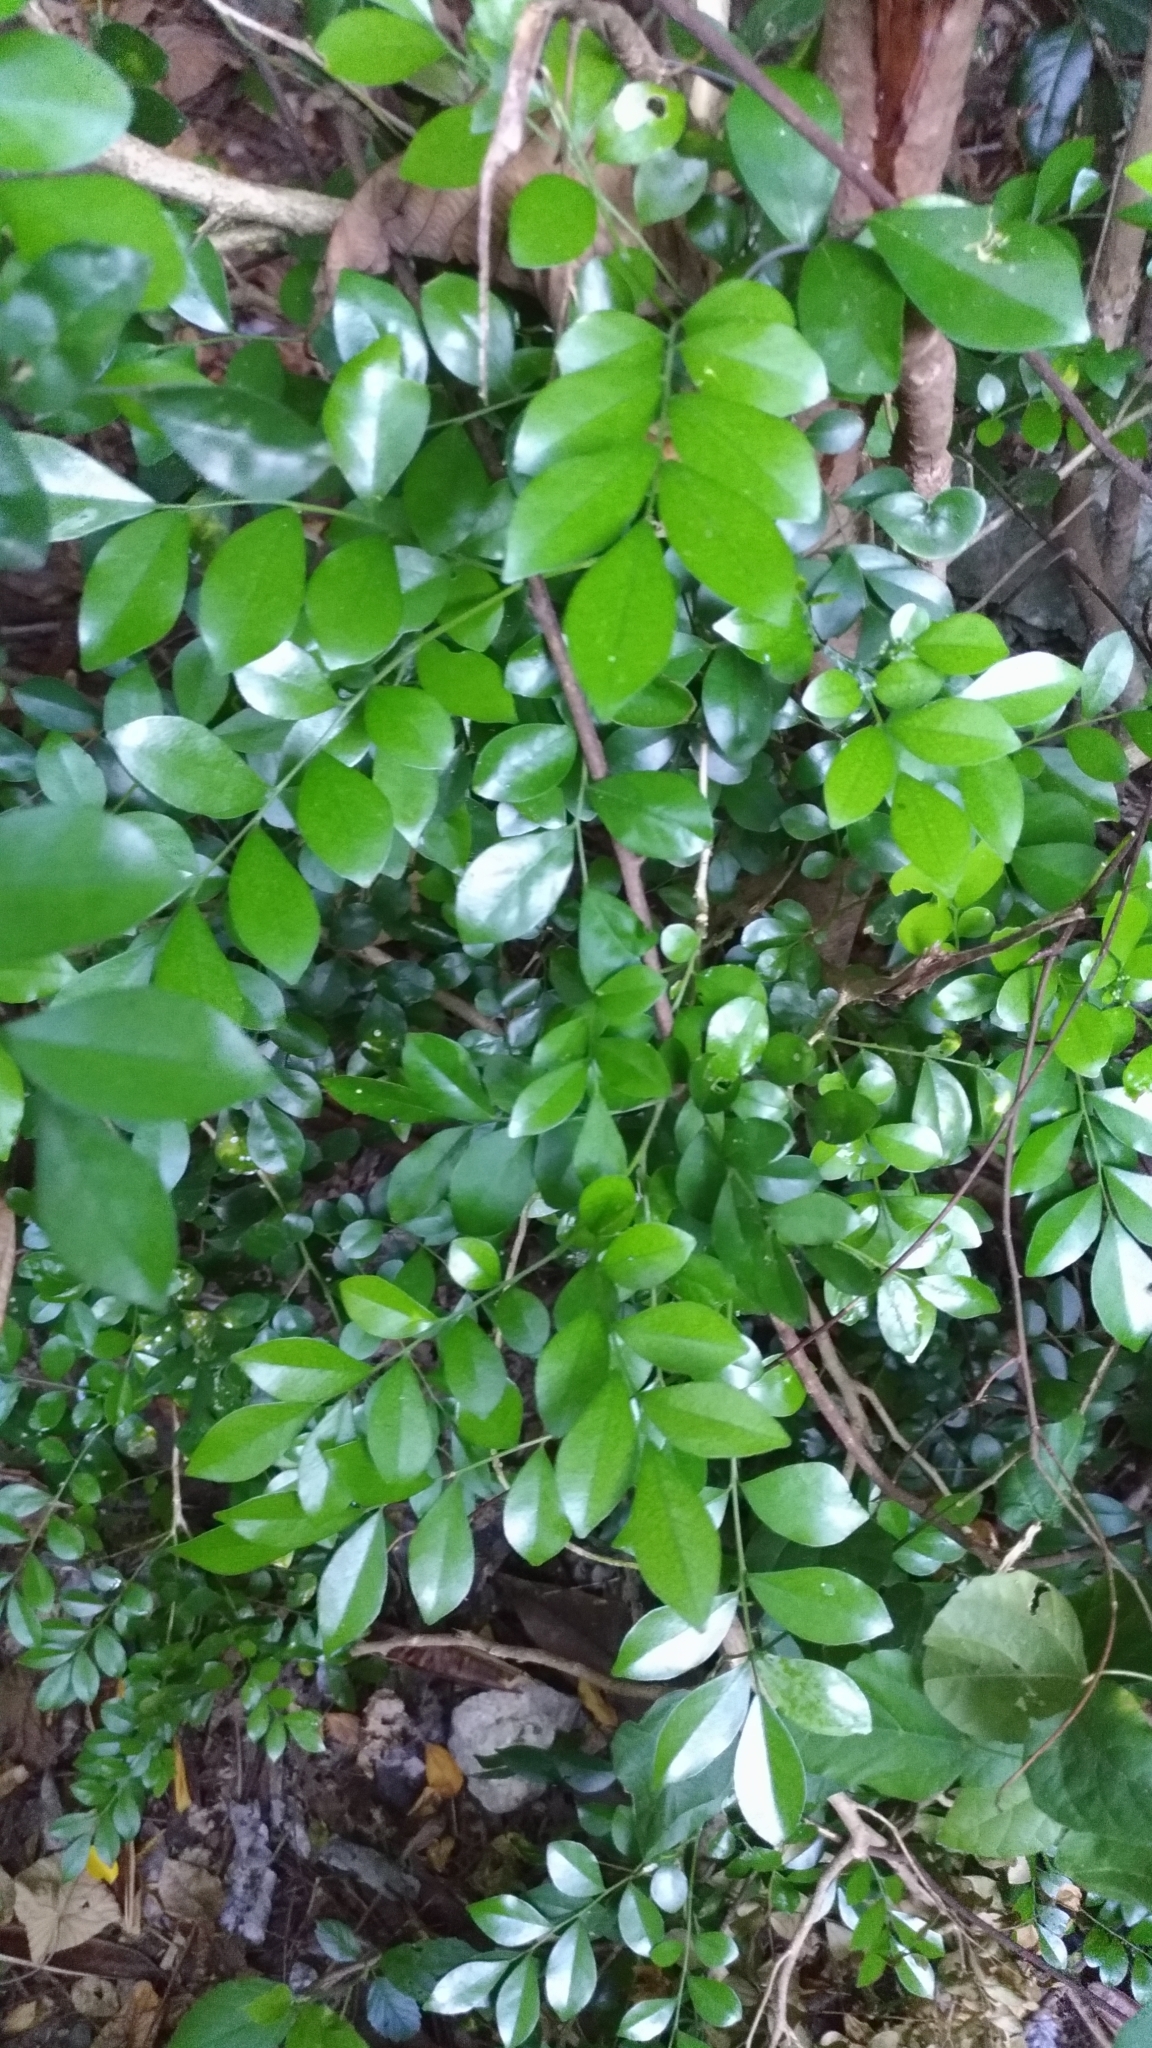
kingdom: Plantae
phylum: Tracheophyta
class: Magnoliopsida
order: Sapindales
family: Rutaceae
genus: Murraya
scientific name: Murraya paniculata
